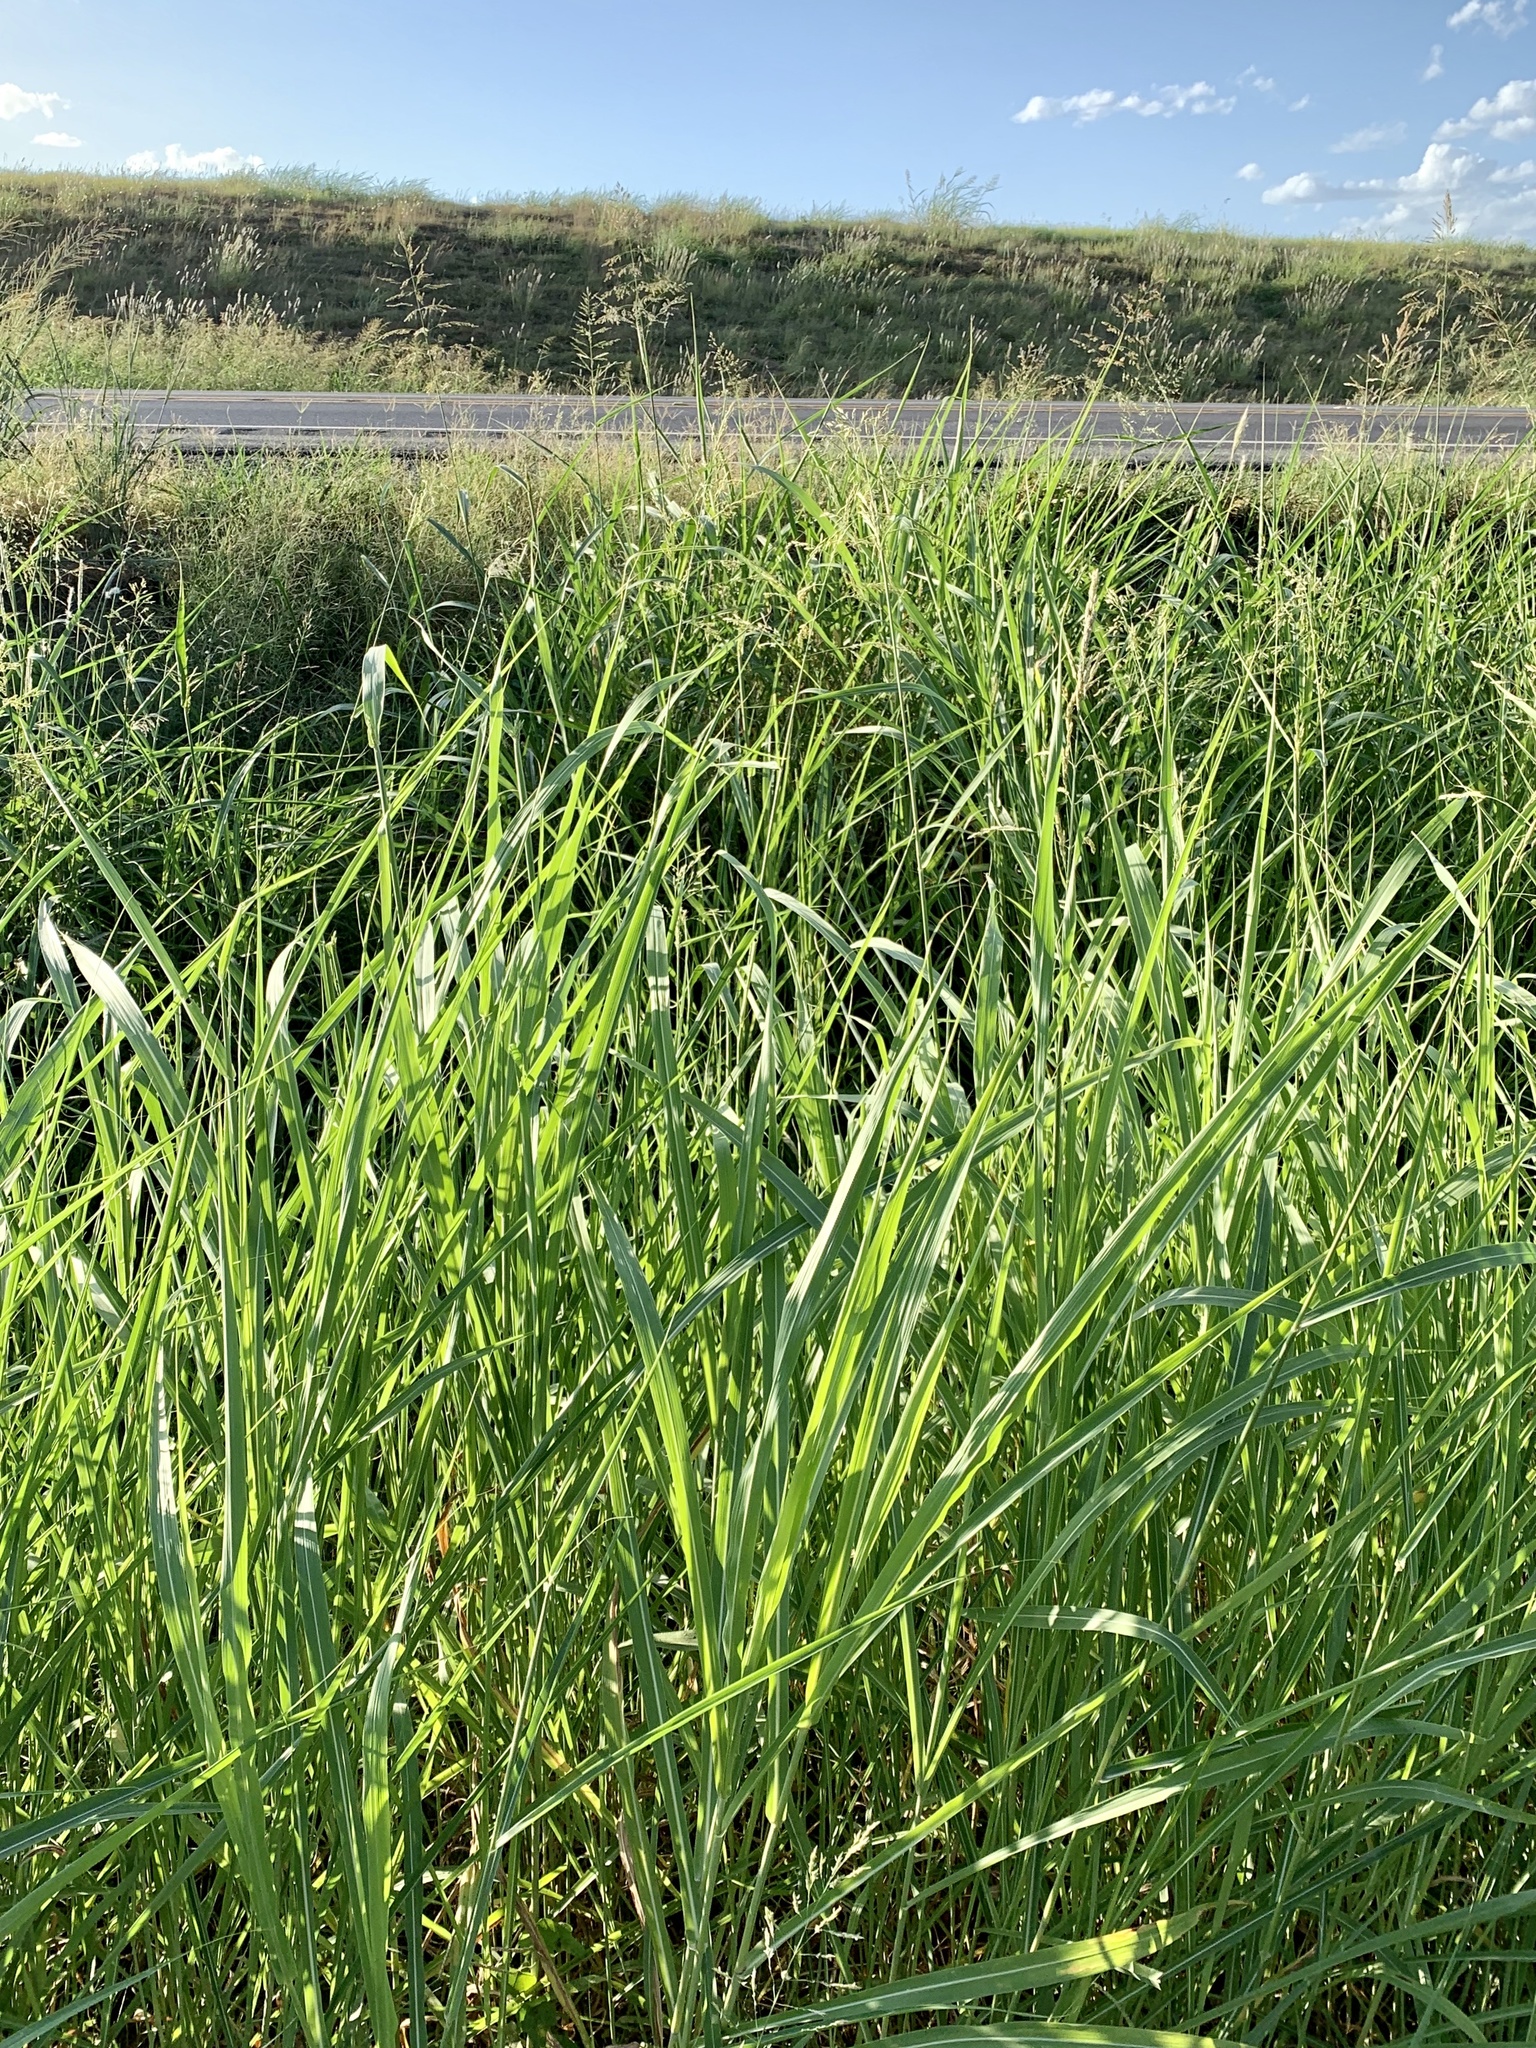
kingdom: Plantae
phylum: Tracheophyta
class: Liliopsida
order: Poales
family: Poaceae
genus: Sorghum
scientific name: Sorghum halepense
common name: Johnson-grass
